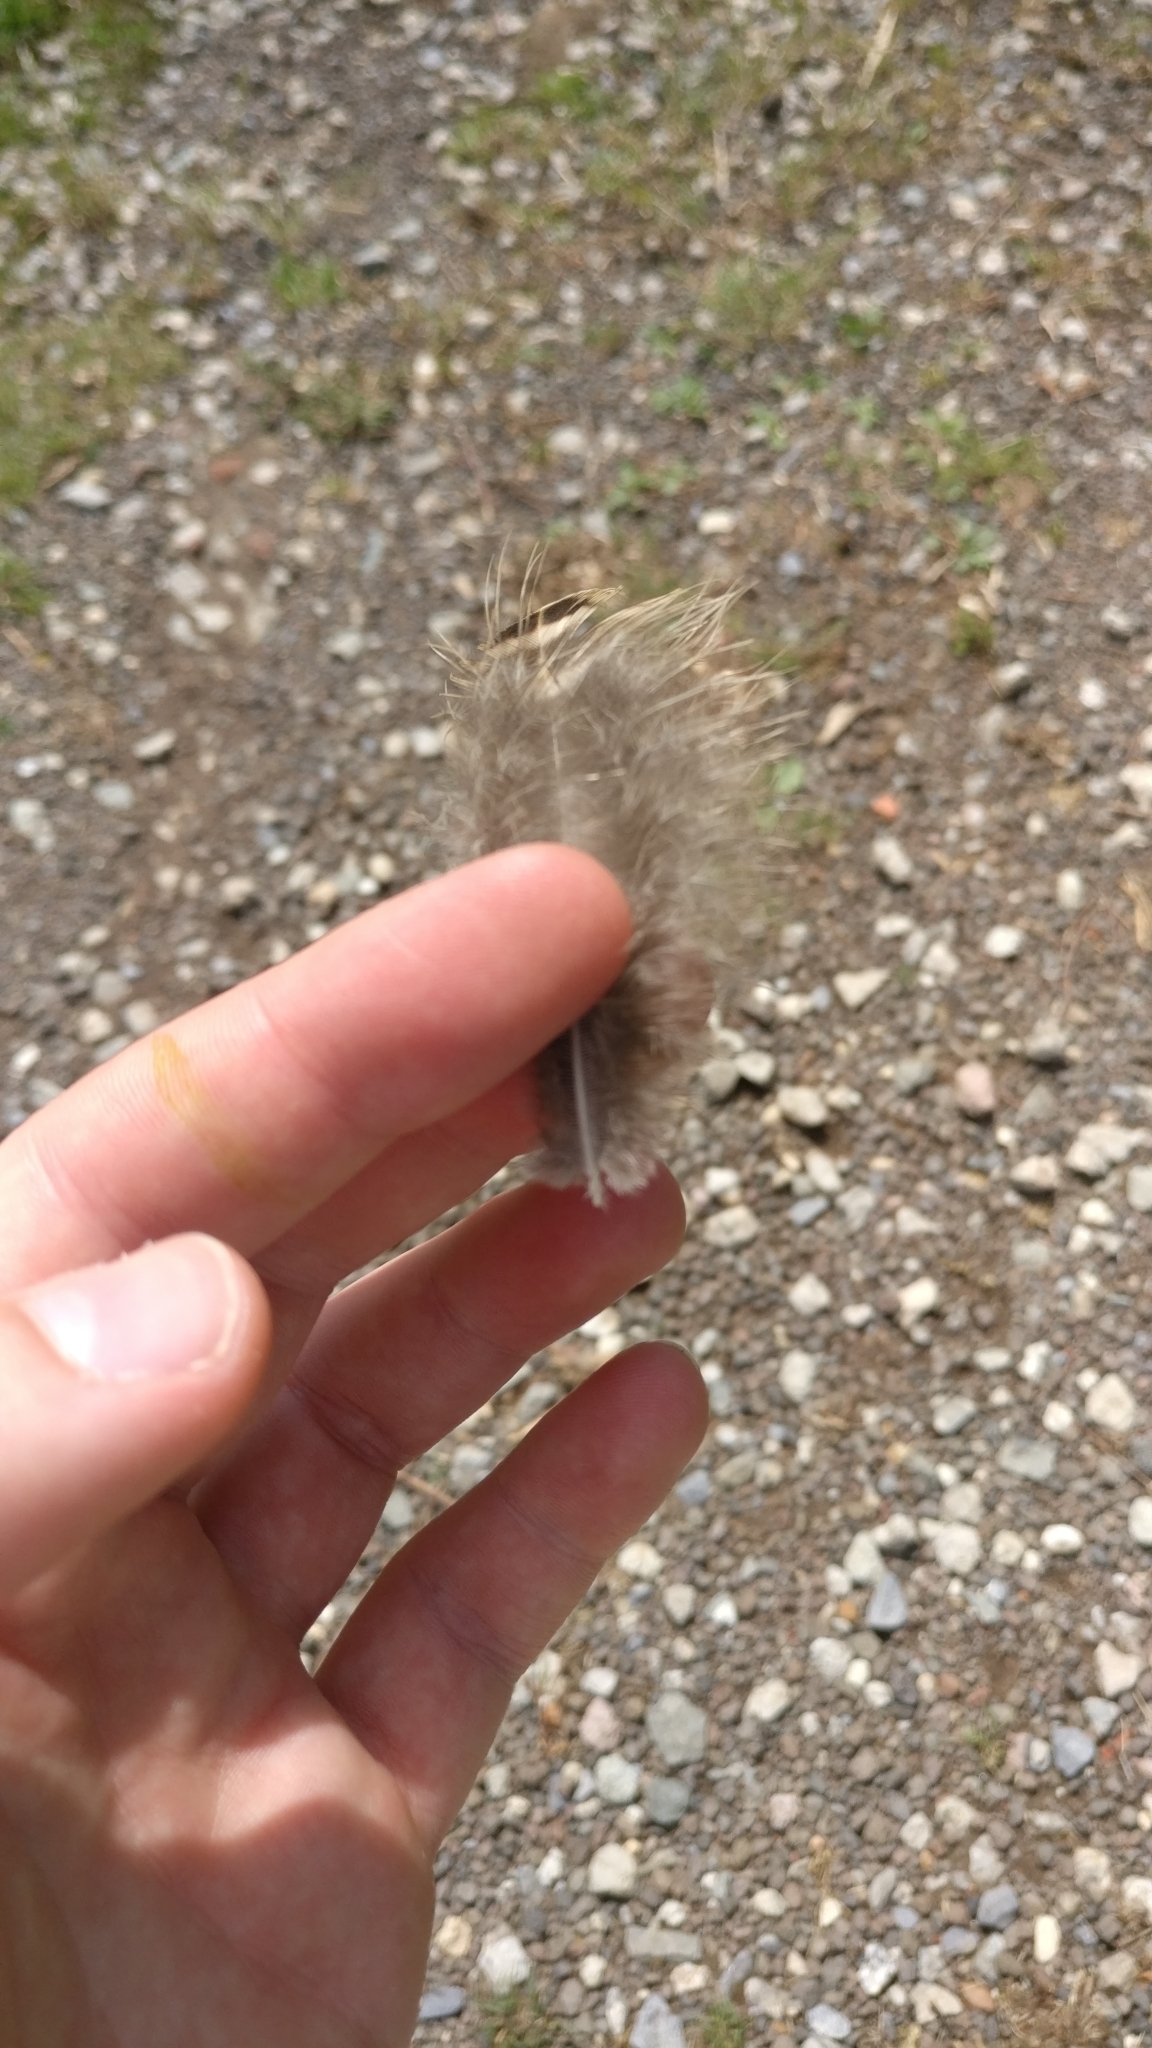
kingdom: Animalia
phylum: Chordata
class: Aves
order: Galliformes
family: Phasianidae
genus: Phasianus
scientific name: Phasianus colchicus
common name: Common pheasant
